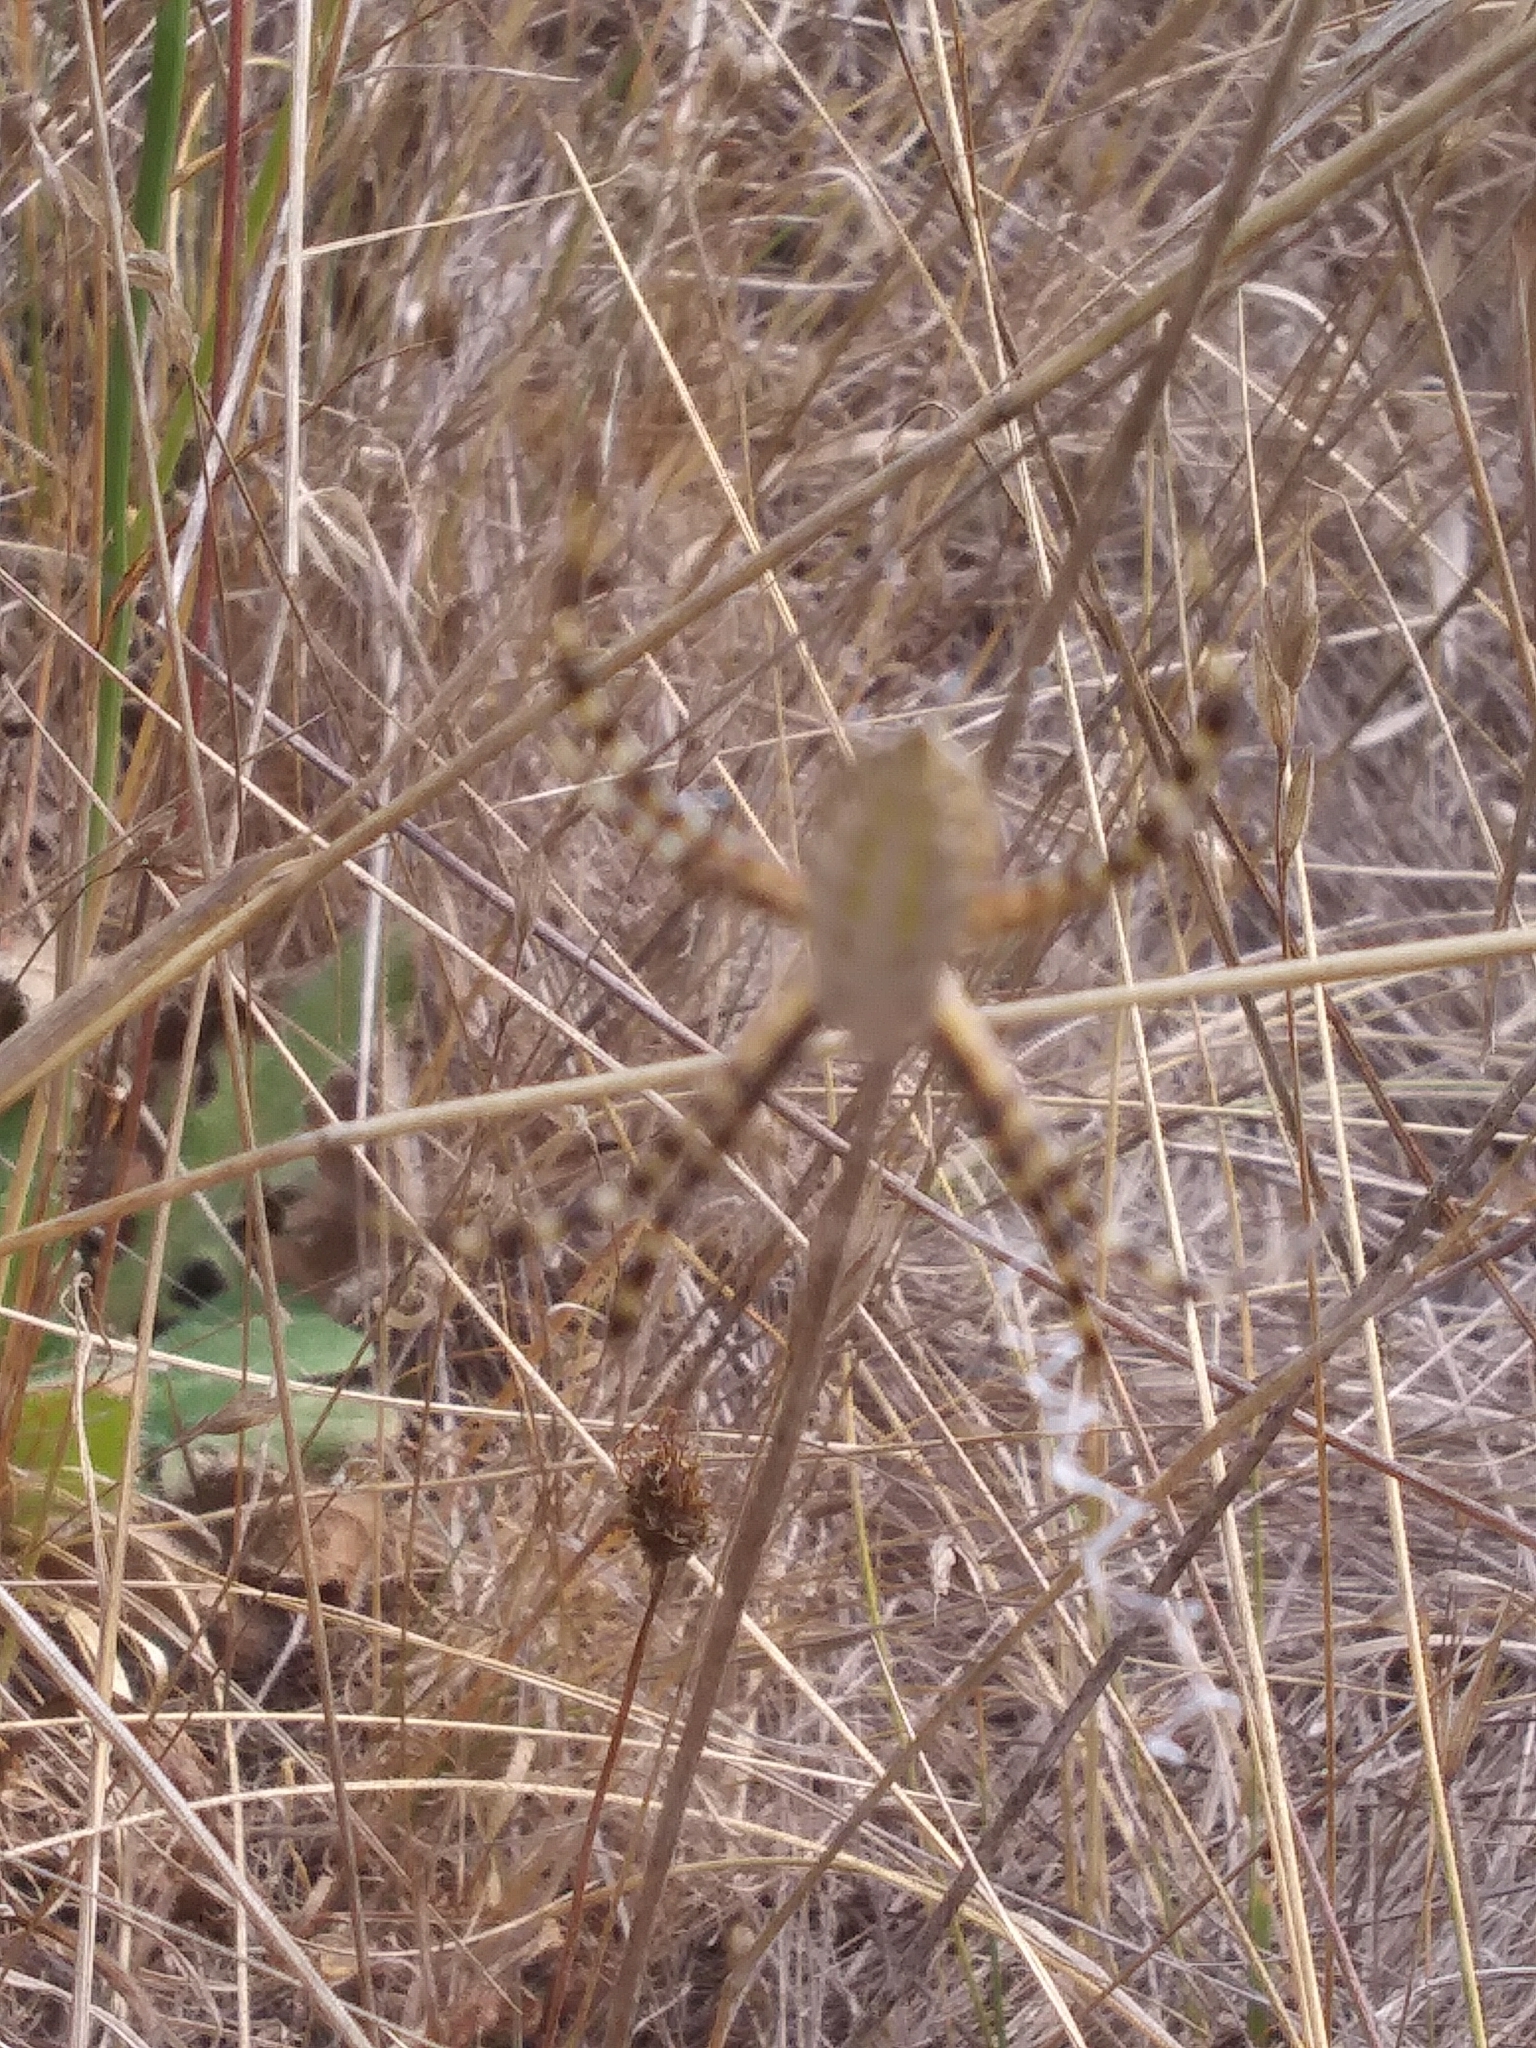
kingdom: Animalia
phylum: Arthropoda
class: Arachnida
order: Araneae
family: Araneidae
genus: Argiope
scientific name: Argiope trifasciata
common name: Banded garden spider
